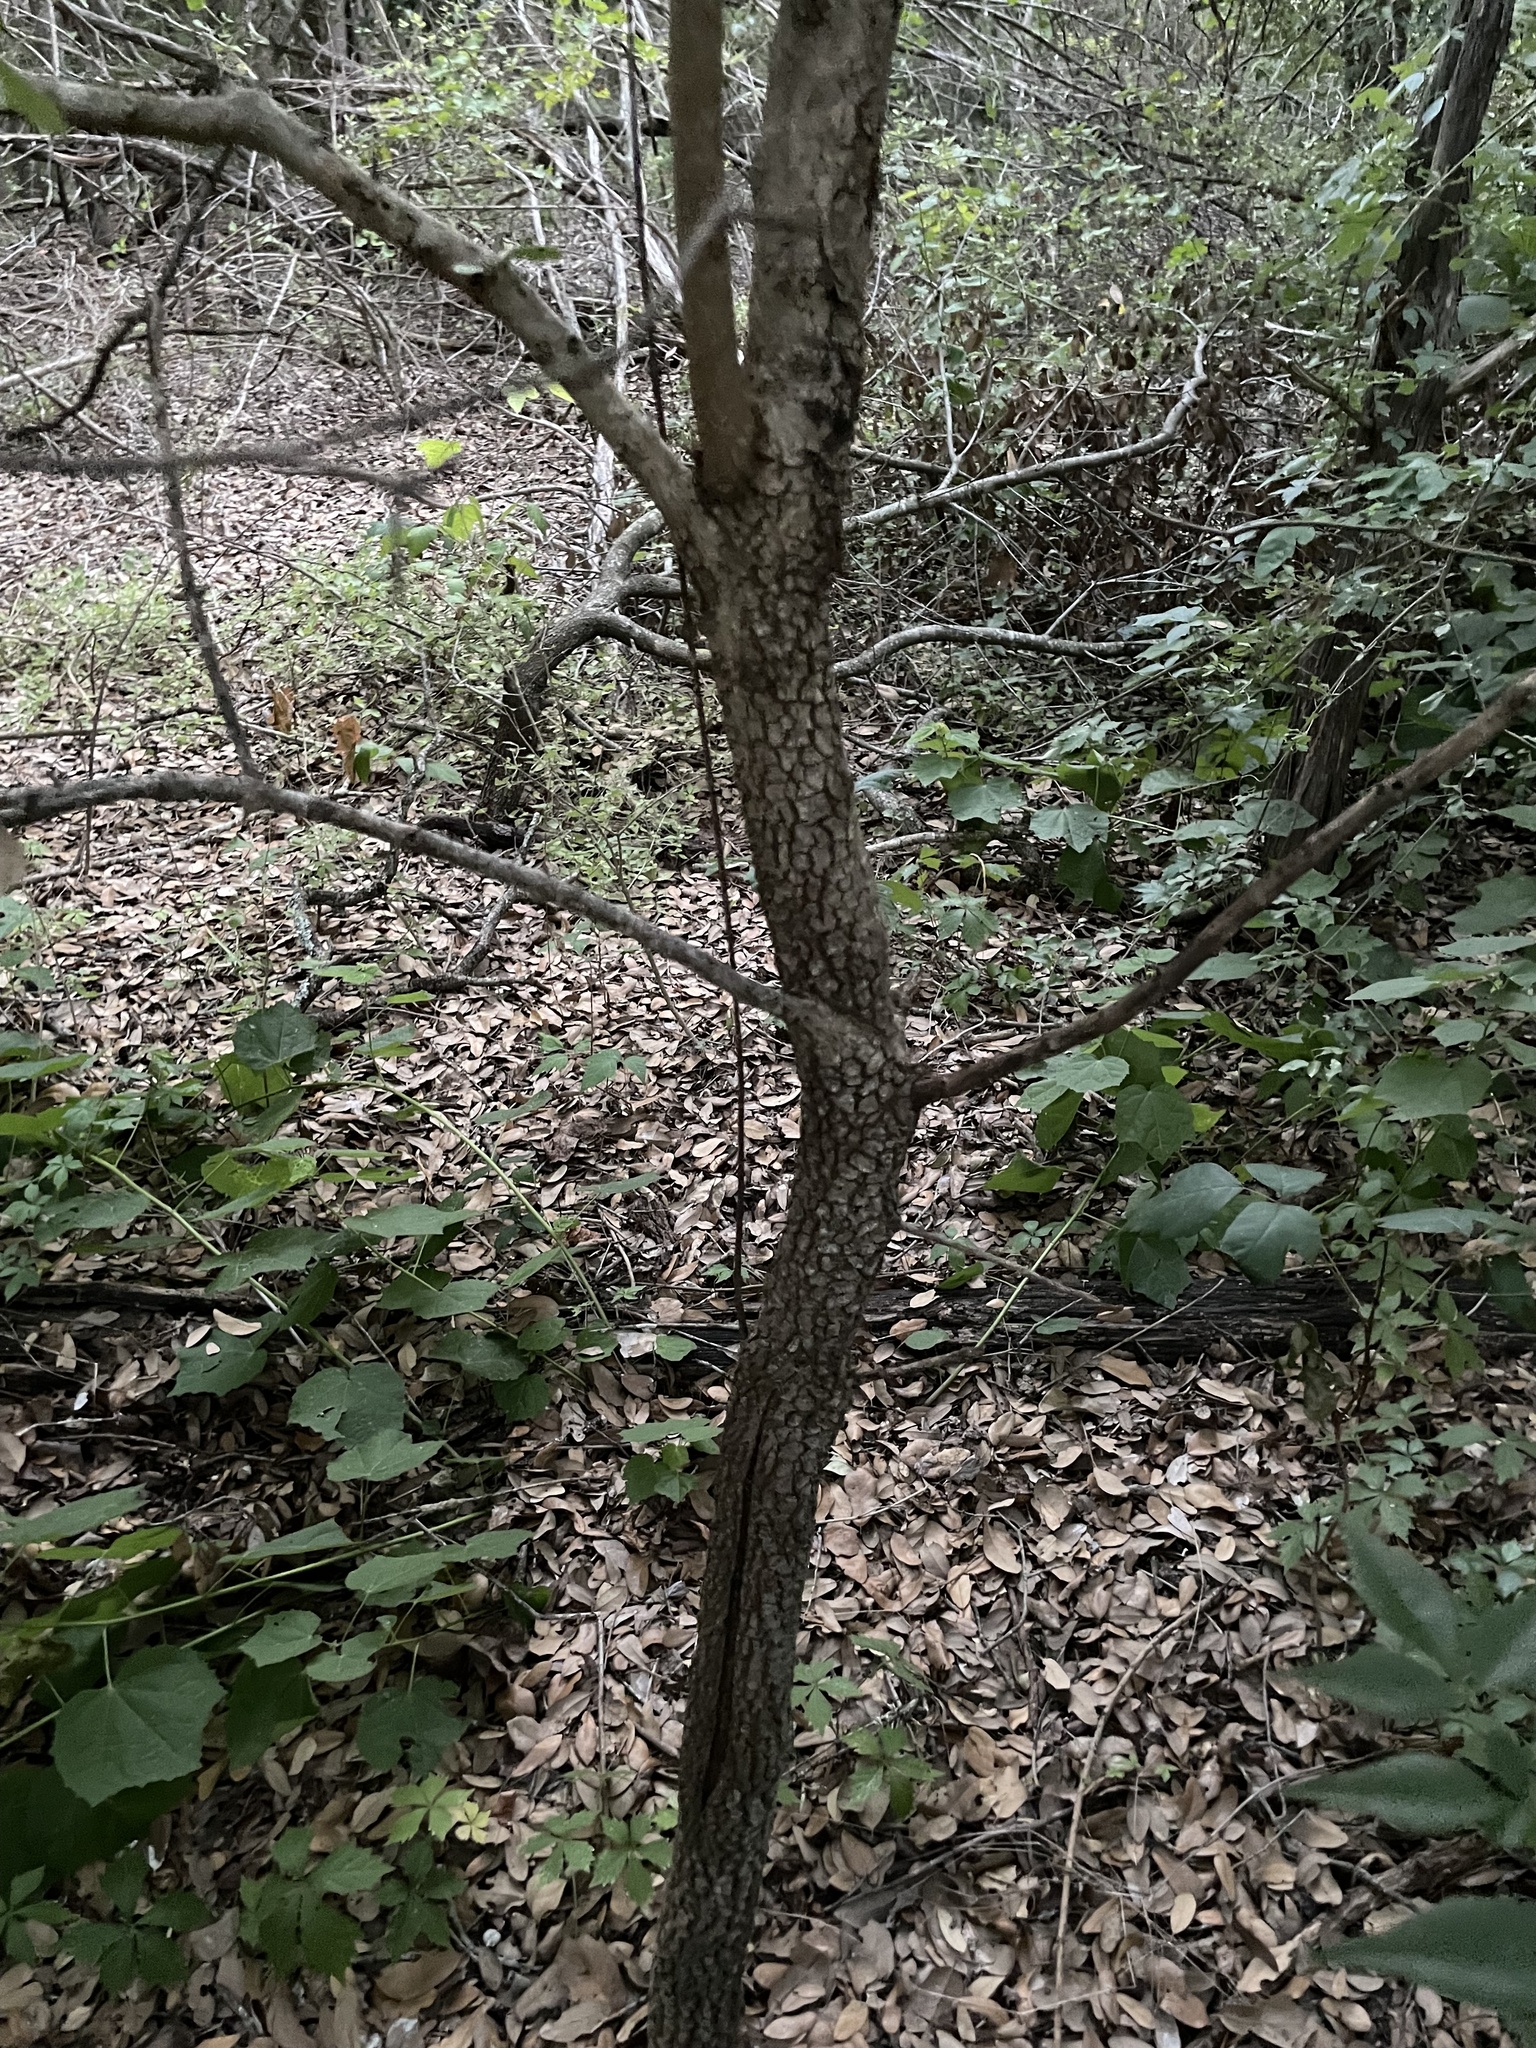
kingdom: Plantae
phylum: Tracheophyta
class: Magnoliopsida
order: Dipsacales
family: Viburnaceae
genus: Viburnum
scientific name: Viburnum rufidulum
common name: Blue haw
